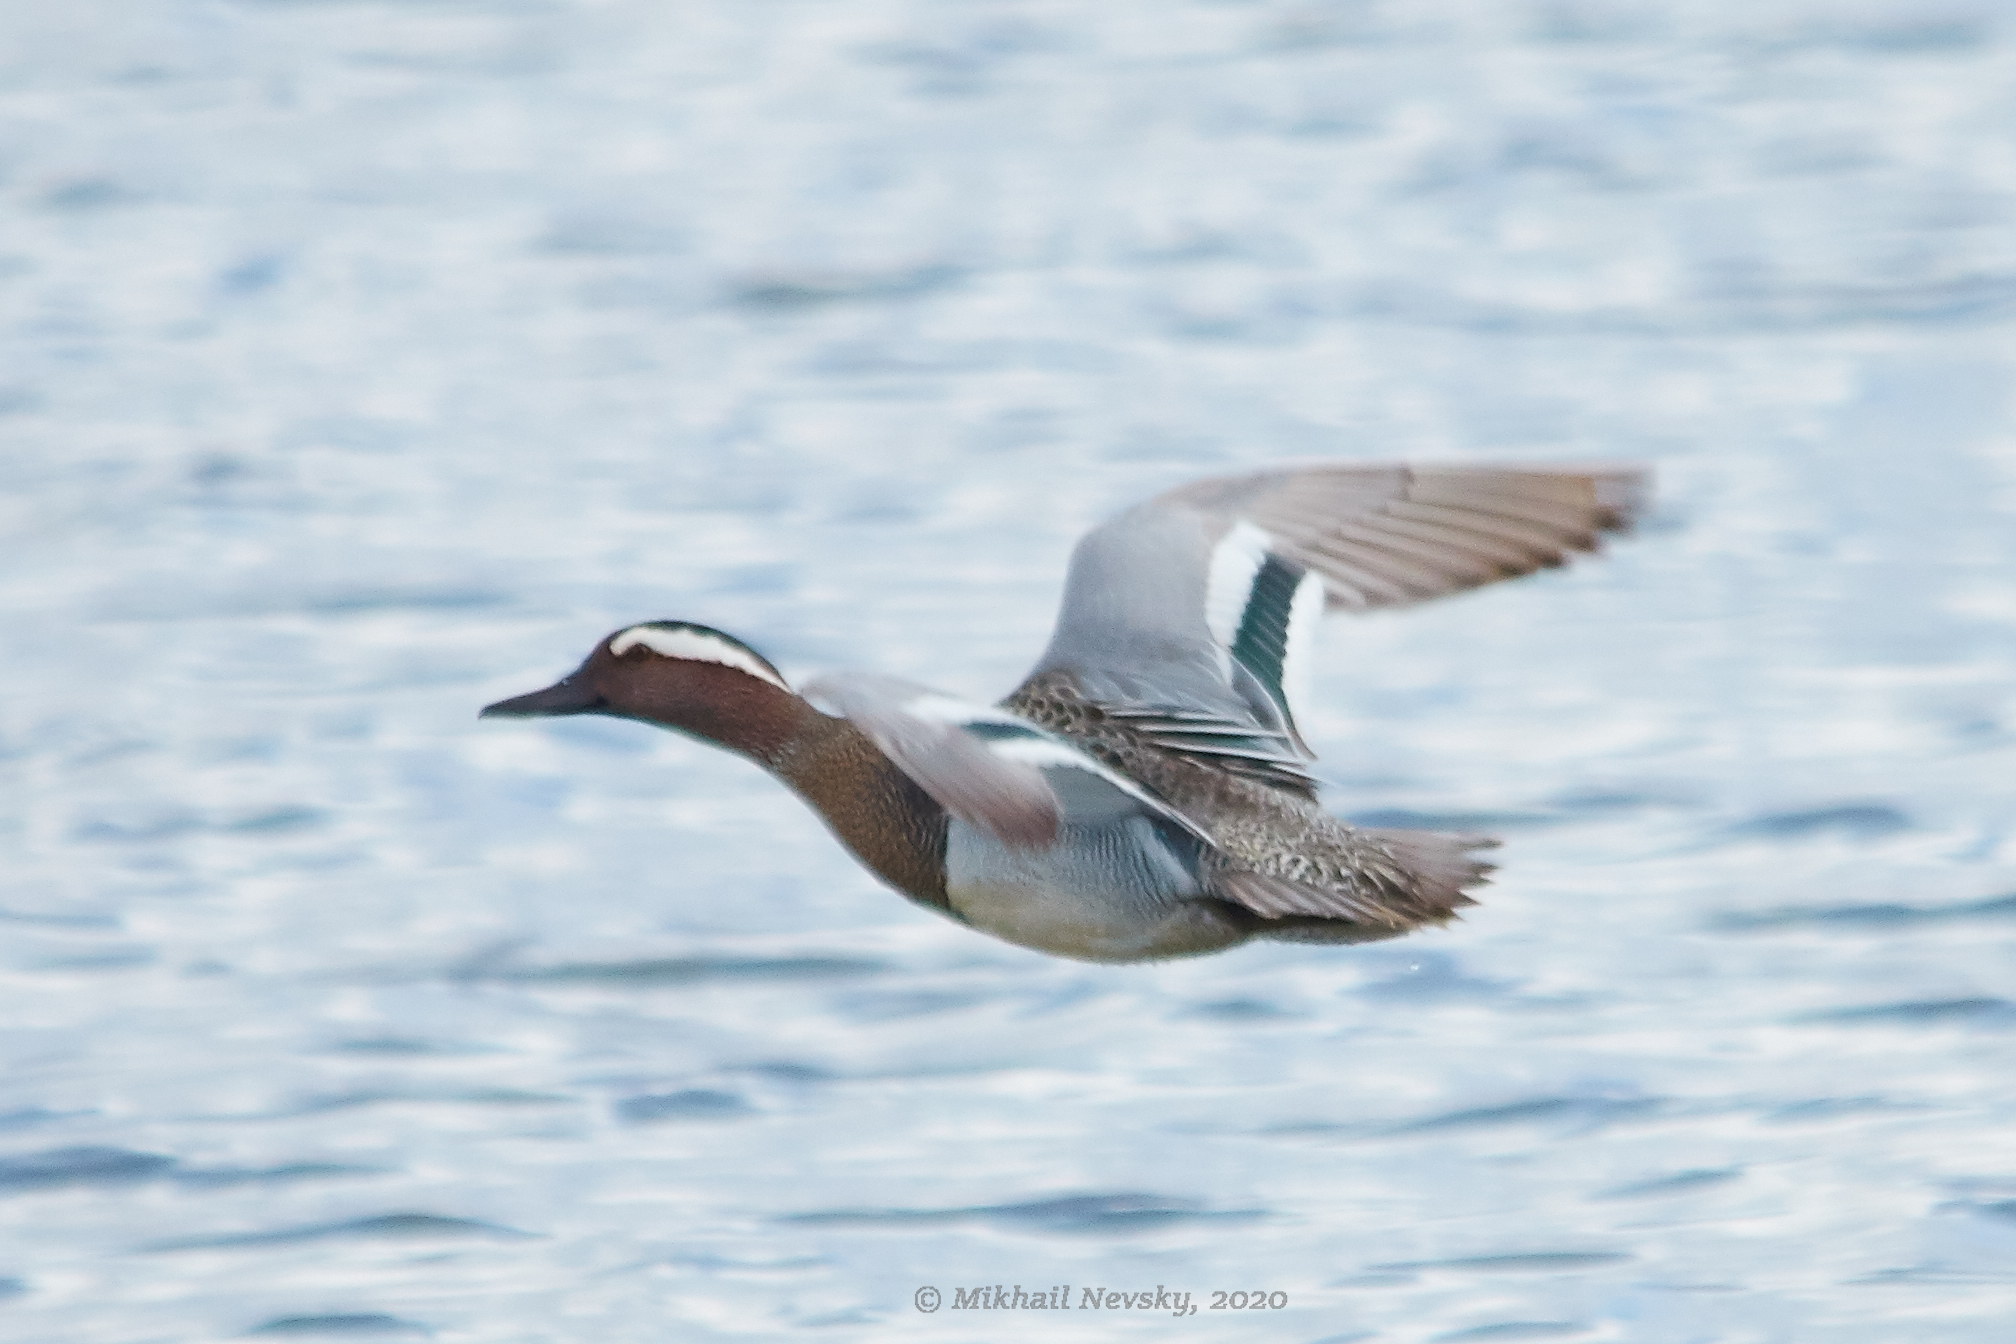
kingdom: Animalia
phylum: Chordata
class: Aves
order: Anseriformes
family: Anatidae
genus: Spatula
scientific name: Spatula querquedula
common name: Garganey
